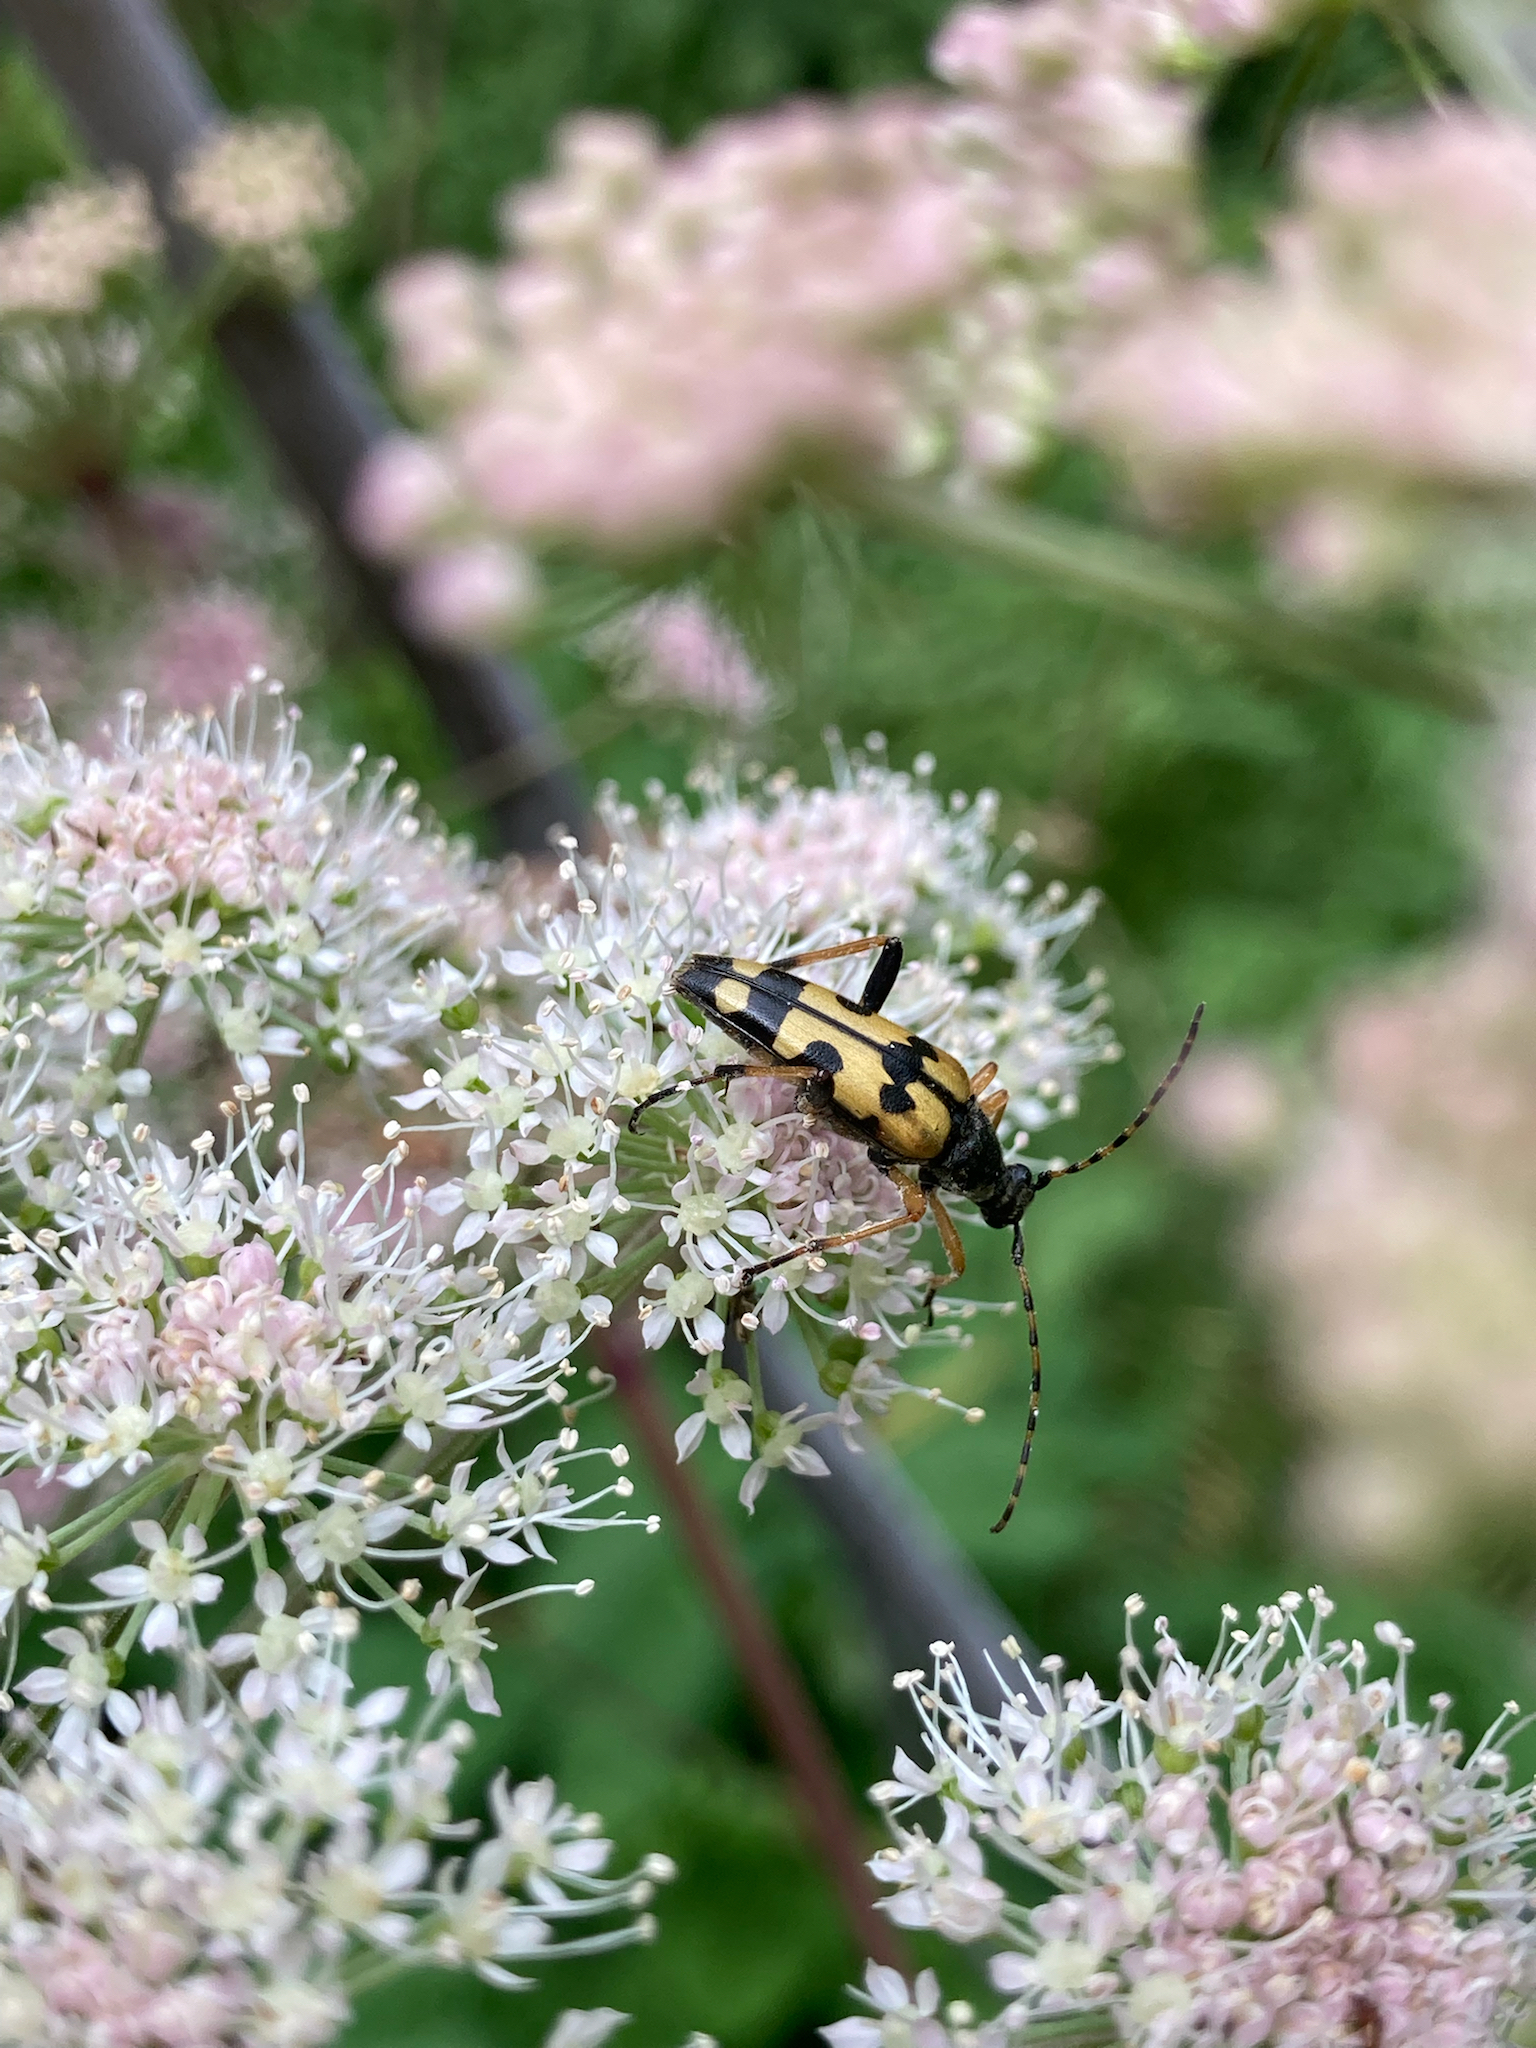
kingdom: Animalia
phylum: Arthropoda
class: Insecta
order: Coleoptera
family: Cerambycidae
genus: Rutpela
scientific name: Rutpela maculata
